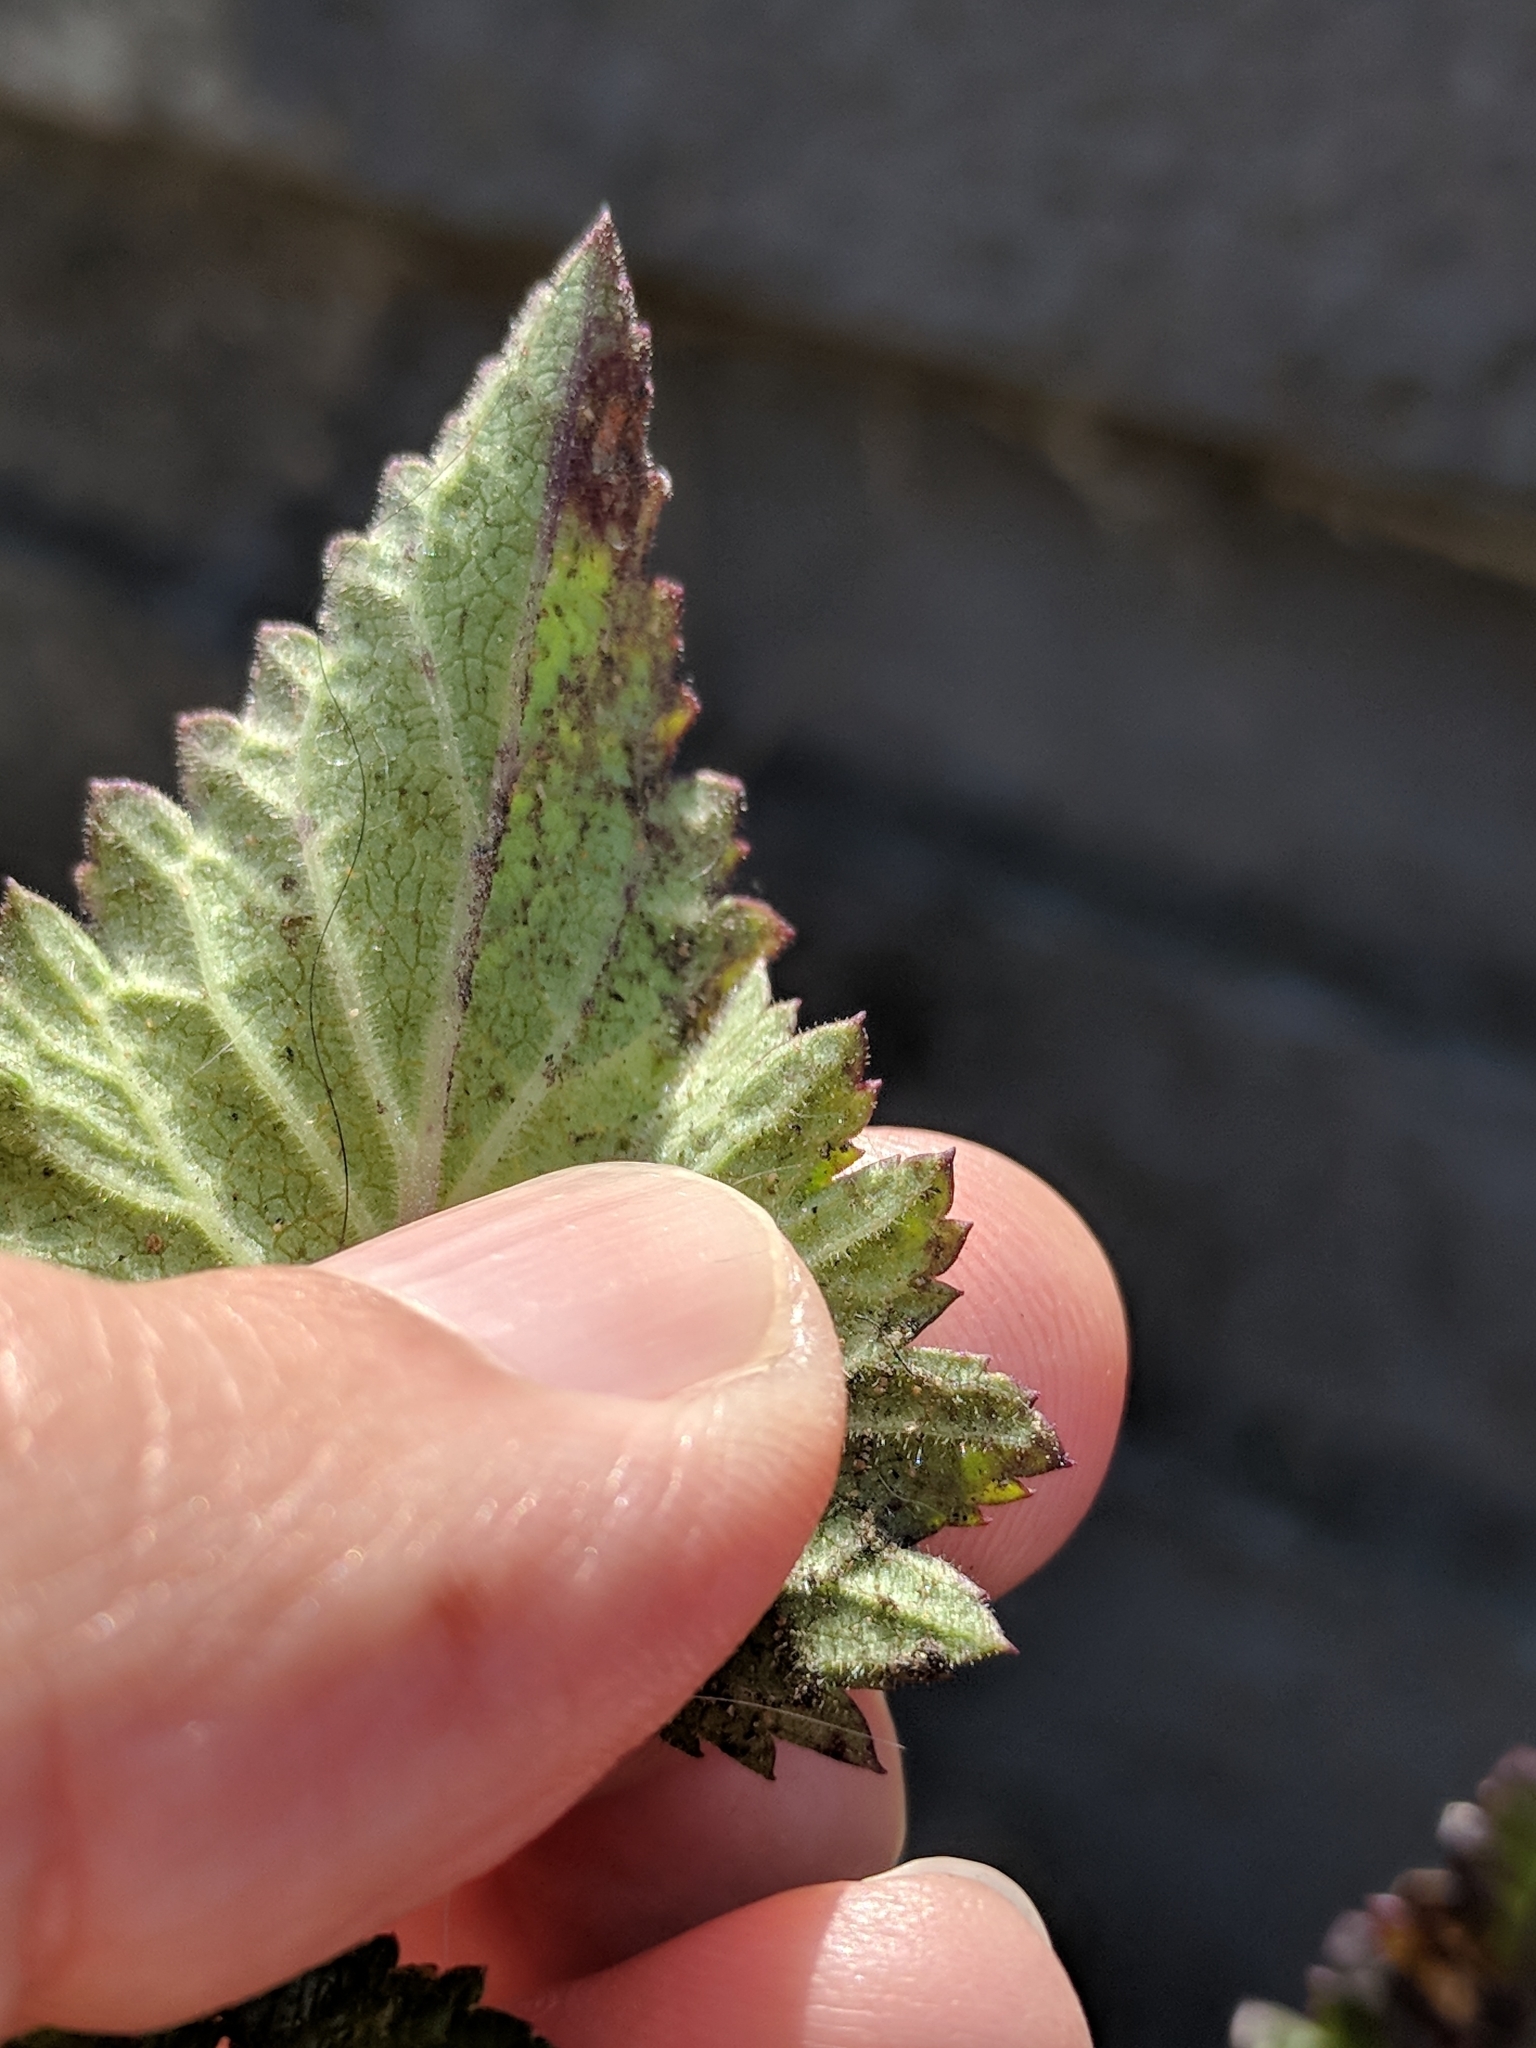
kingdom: Plantae
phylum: Tracheophyta
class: Magnoliopsida
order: Lamiales
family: Scrophulariaceae
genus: Scrophularia
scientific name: Scrophularia californica
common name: California figwort
